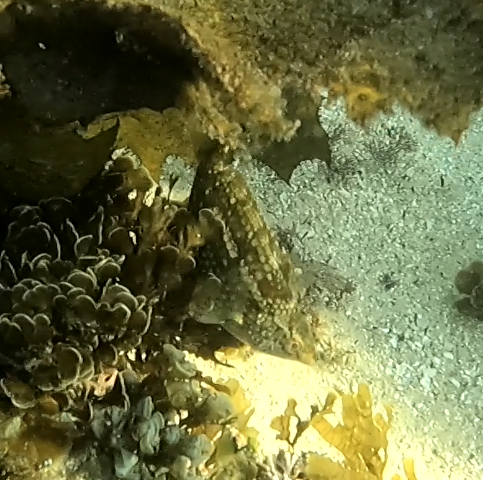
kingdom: Animalia
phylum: Chordata
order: Perciformes
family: Labridae
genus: Notolabrus
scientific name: Notolabrus gymnogenis
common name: Crimson banded wrasse
